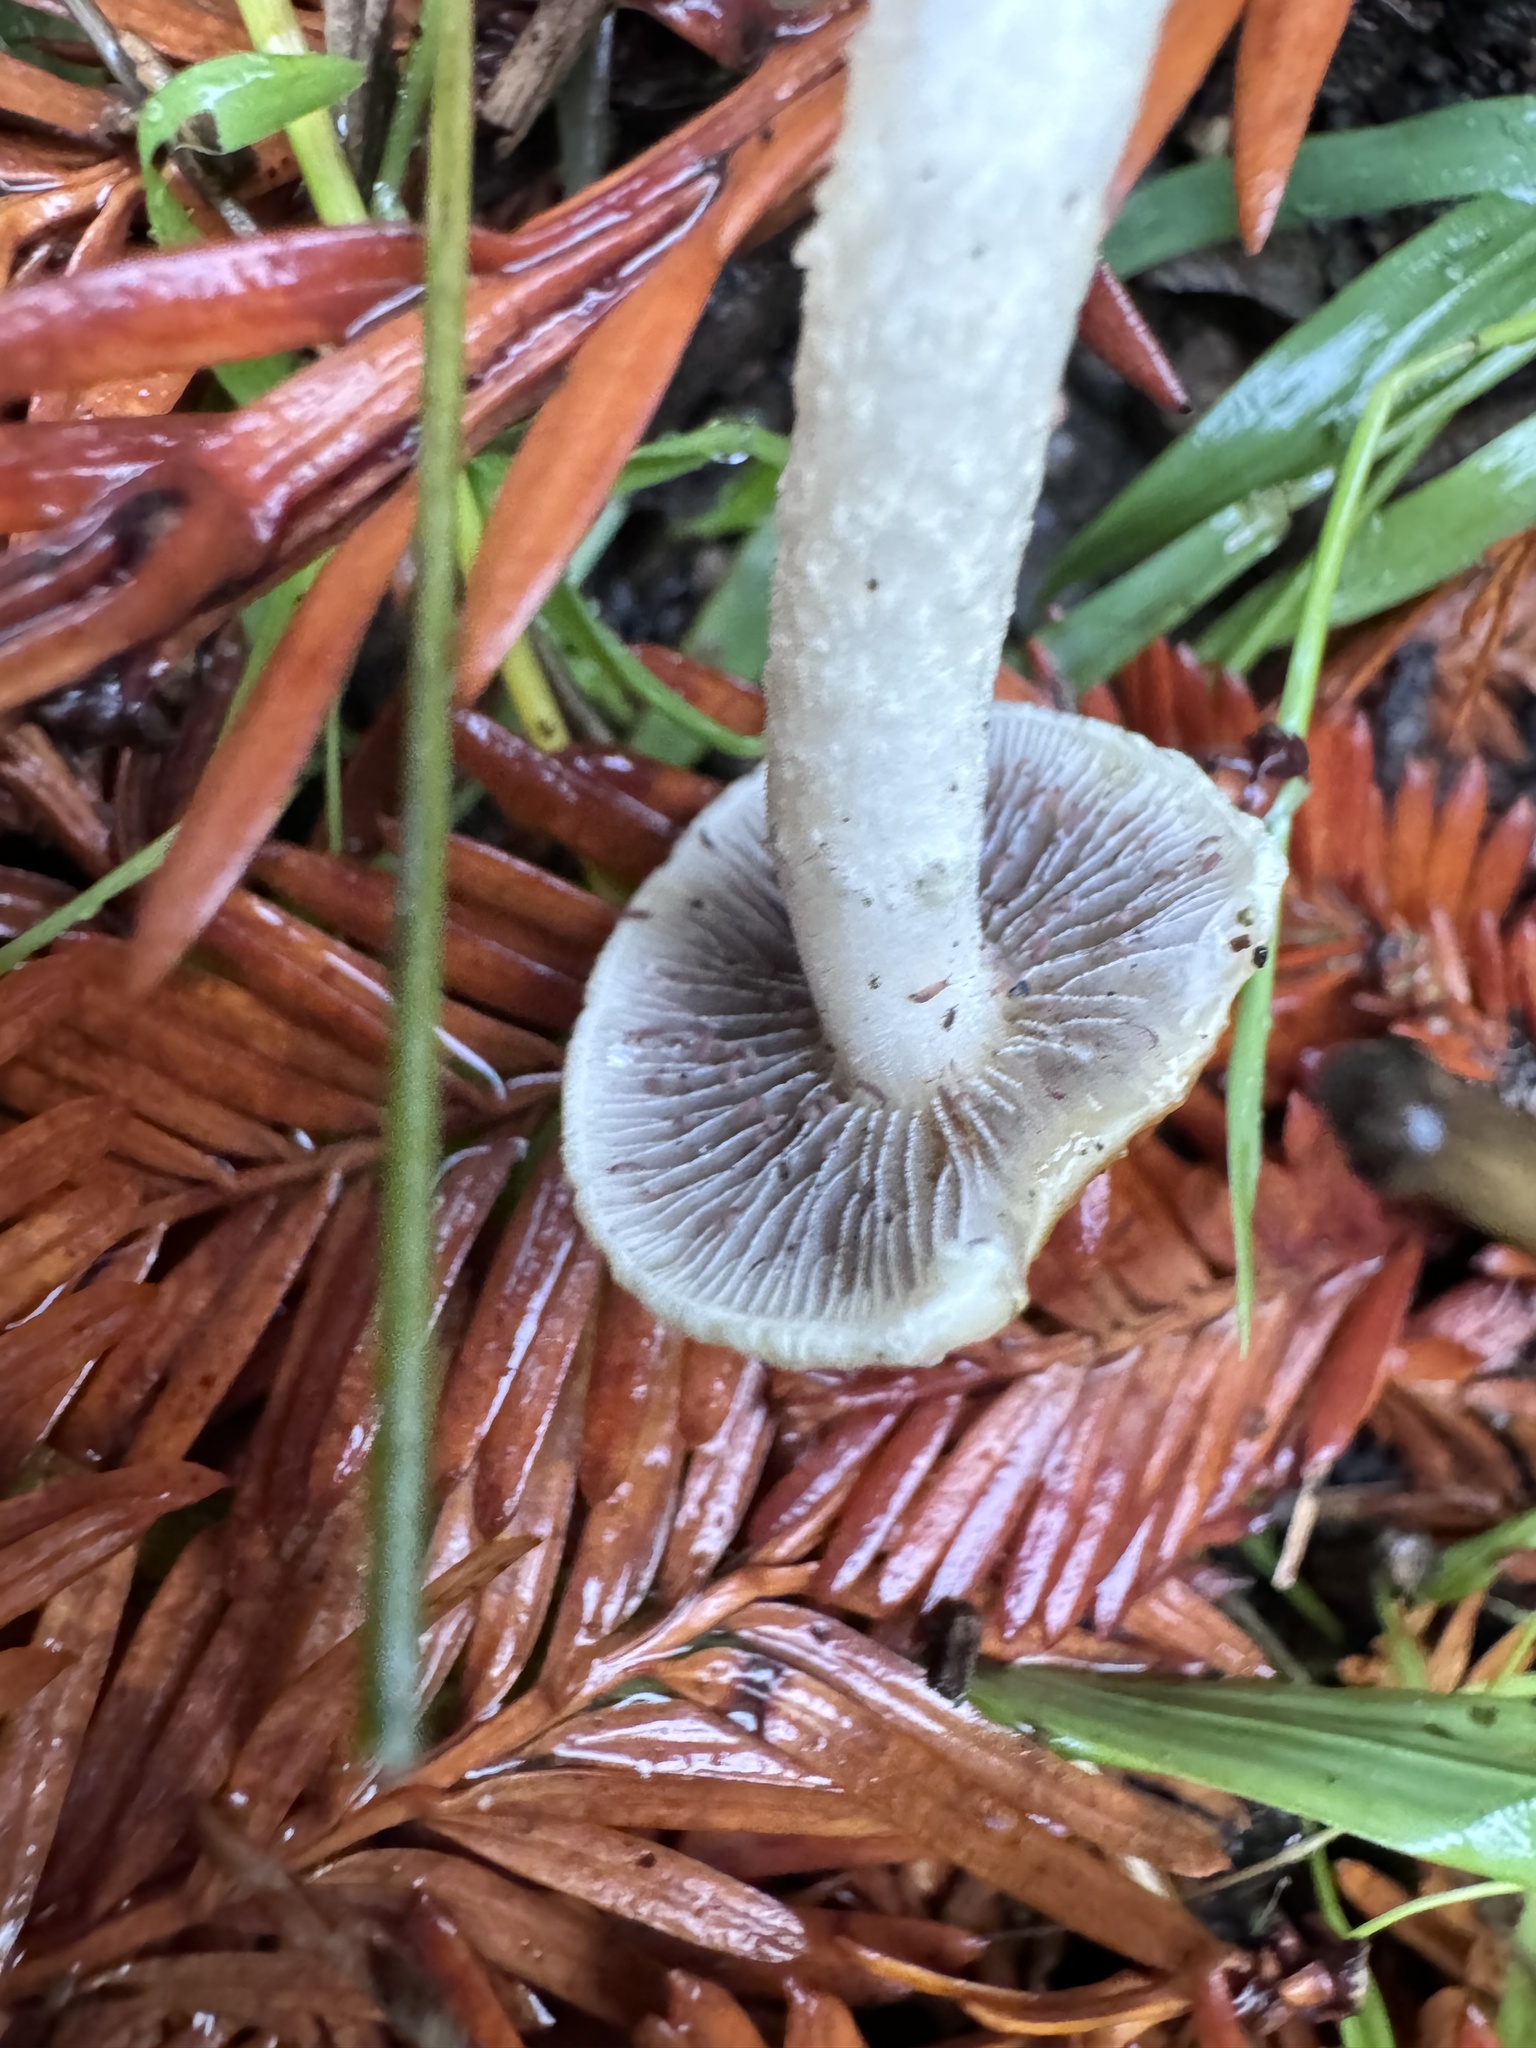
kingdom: Fungi
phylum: Basidiomycota
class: Agaricomycetes
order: Agaricales
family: Strophariaceae
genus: Leratiomyces
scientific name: Leratiomyces percevalii
